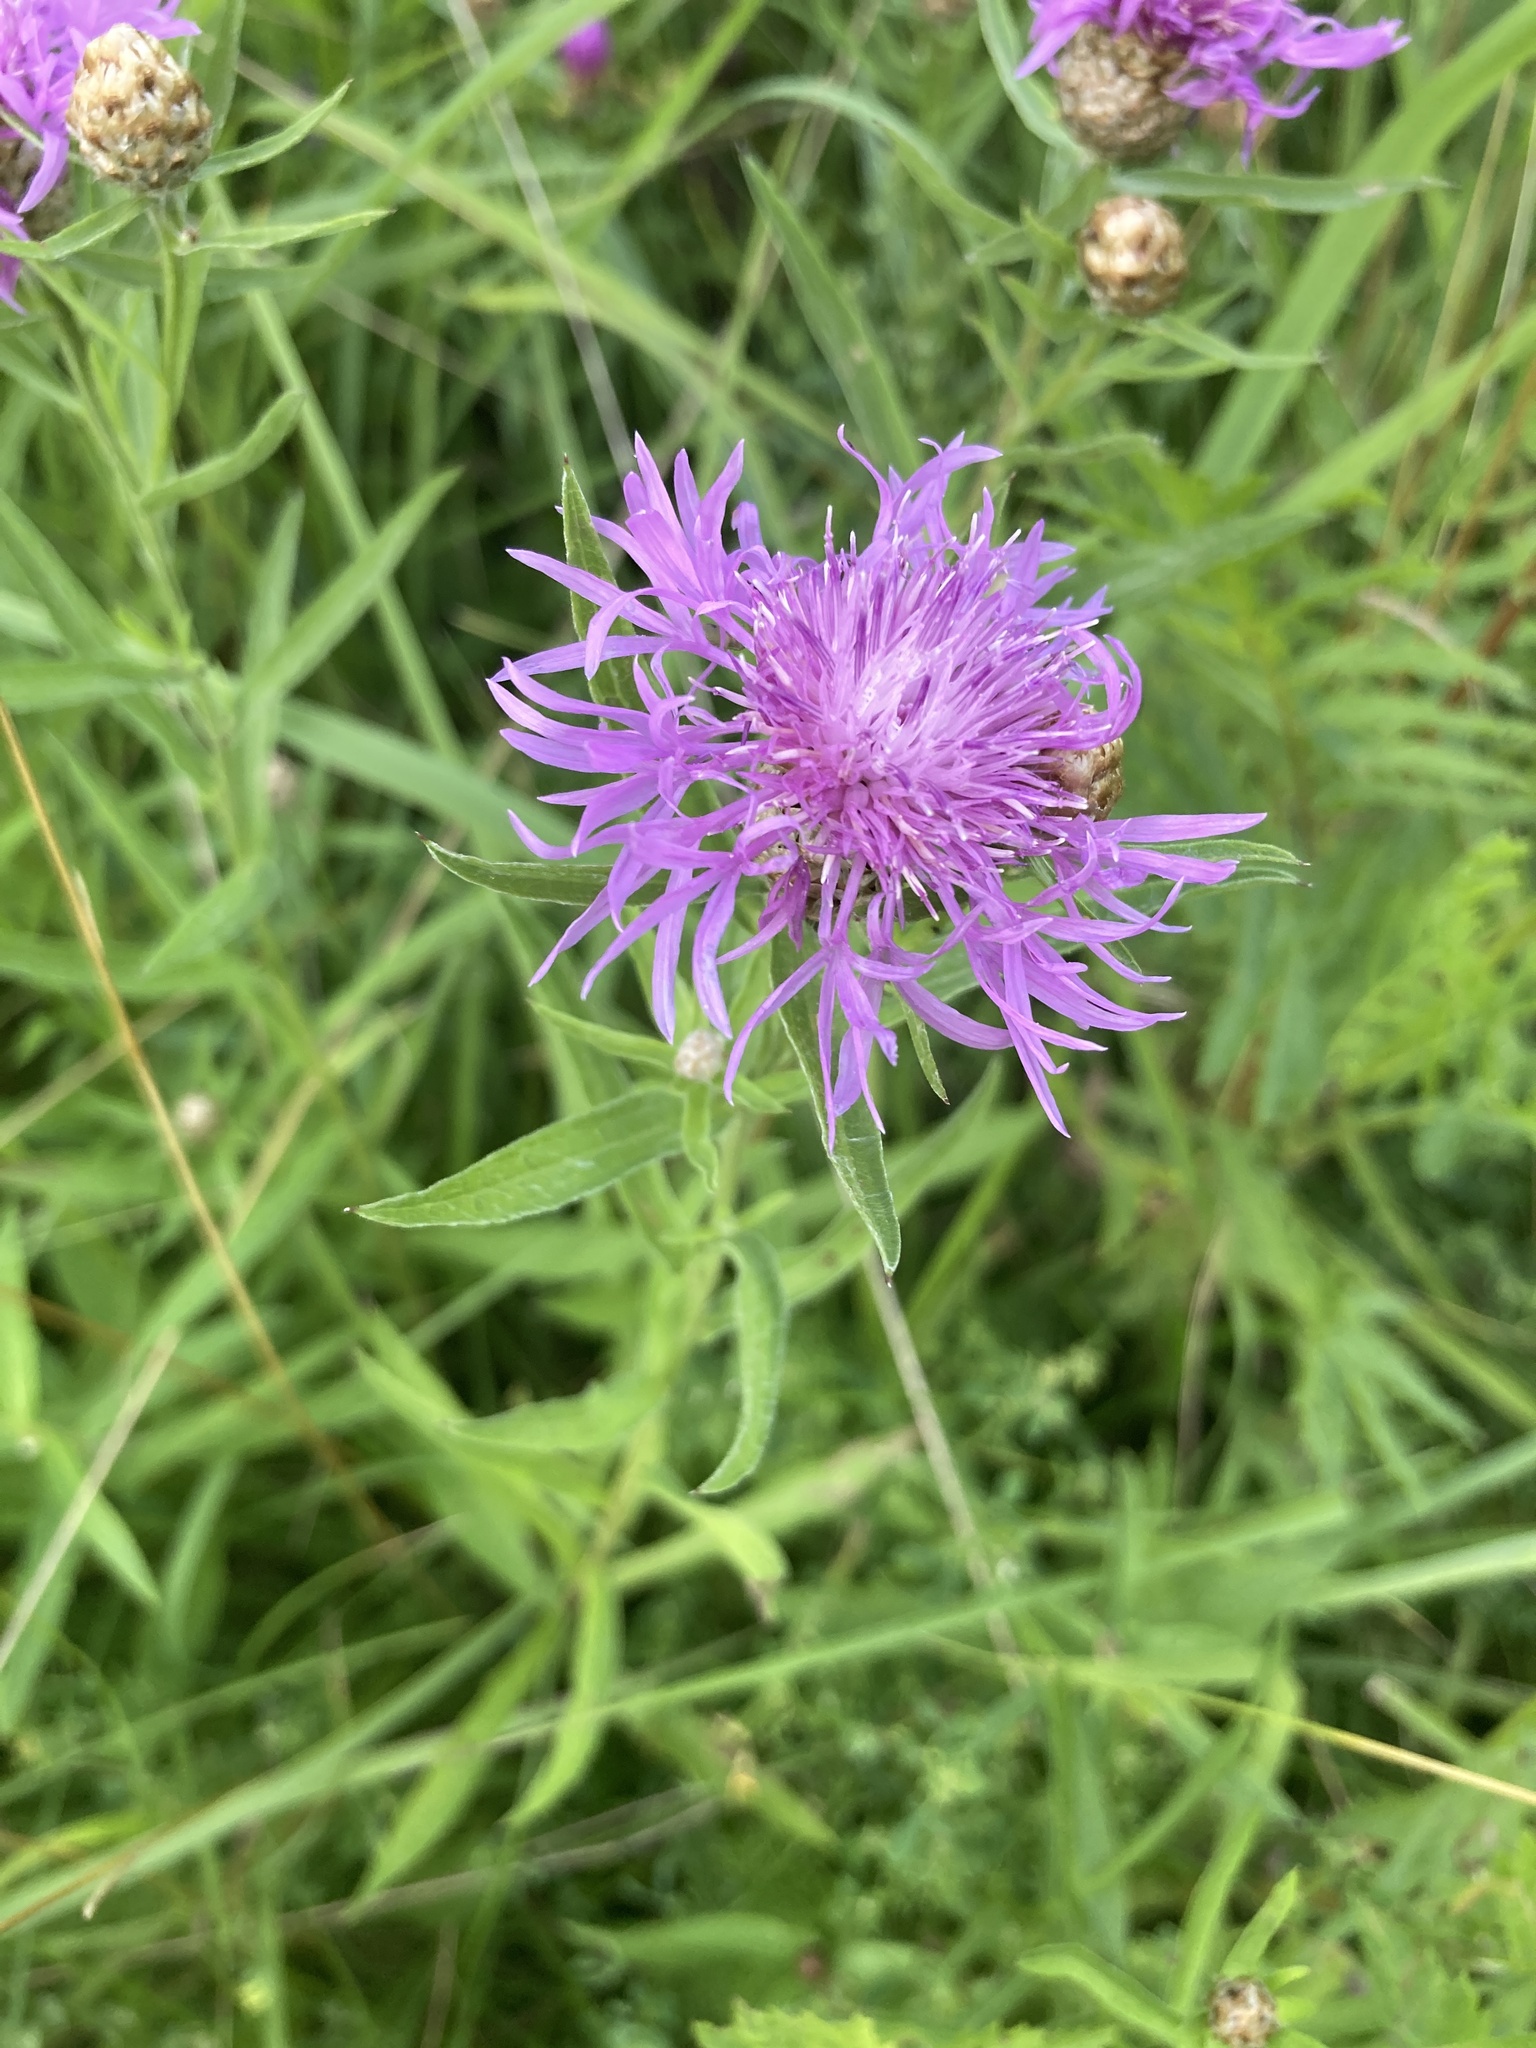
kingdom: Plantae
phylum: Tracheophyta
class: Magnoliopsida
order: Asterales
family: Asteraceae
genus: Centaurea
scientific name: Centaurea jacea
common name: Brown knapweed
